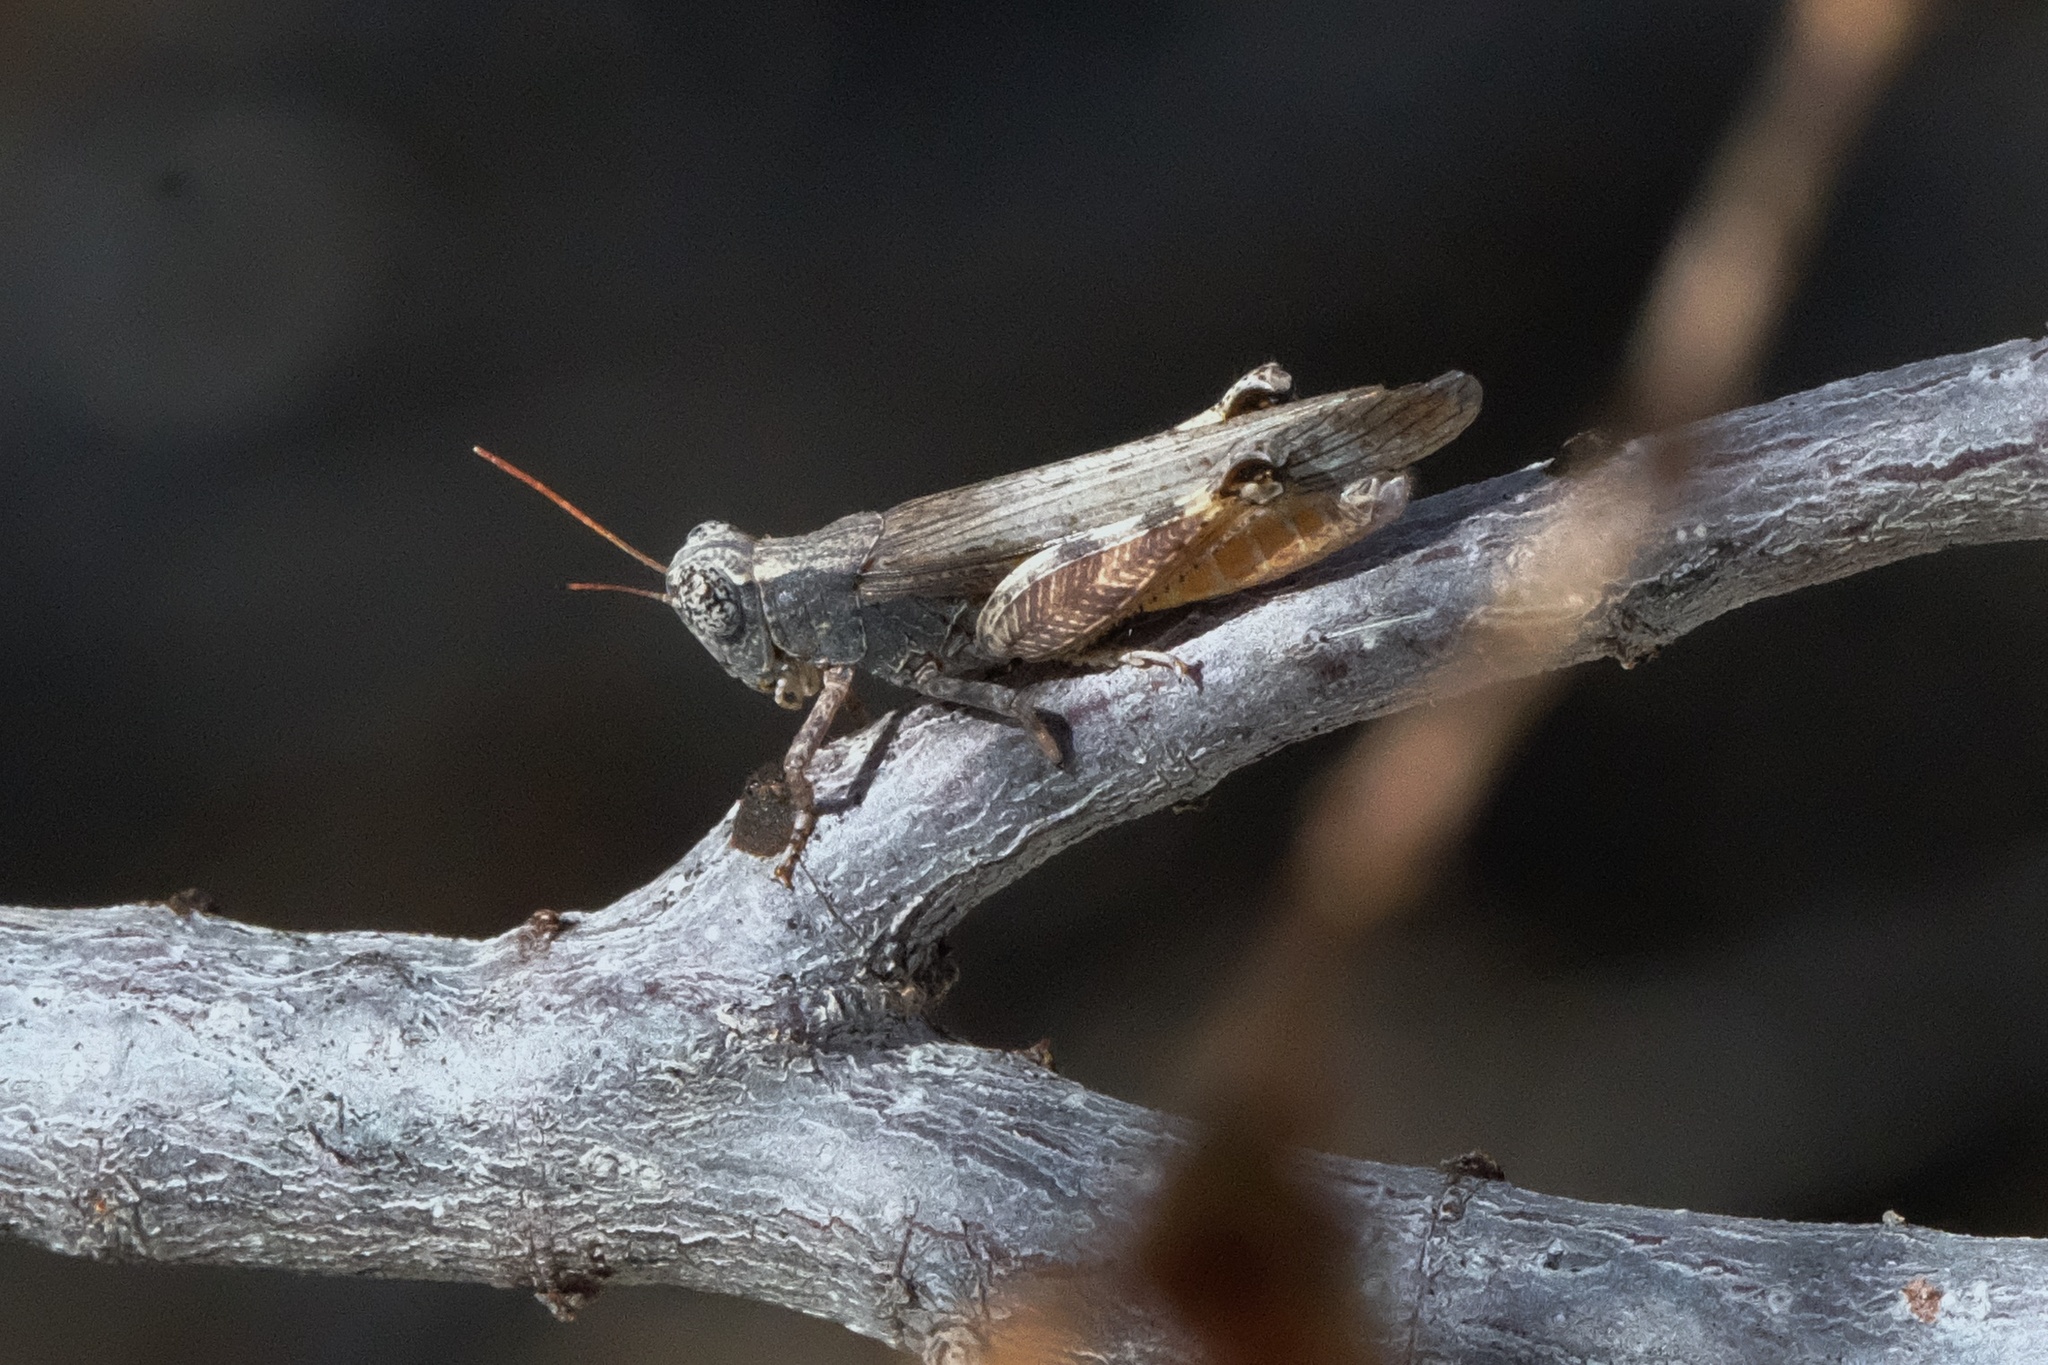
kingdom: Animalia
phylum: Arthropoda
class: Insecta
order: Orthoptera
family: Acrididae
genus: Ligurotettix
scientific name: Ligurotettix coquilletti
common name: Desert clicker grasshopper
